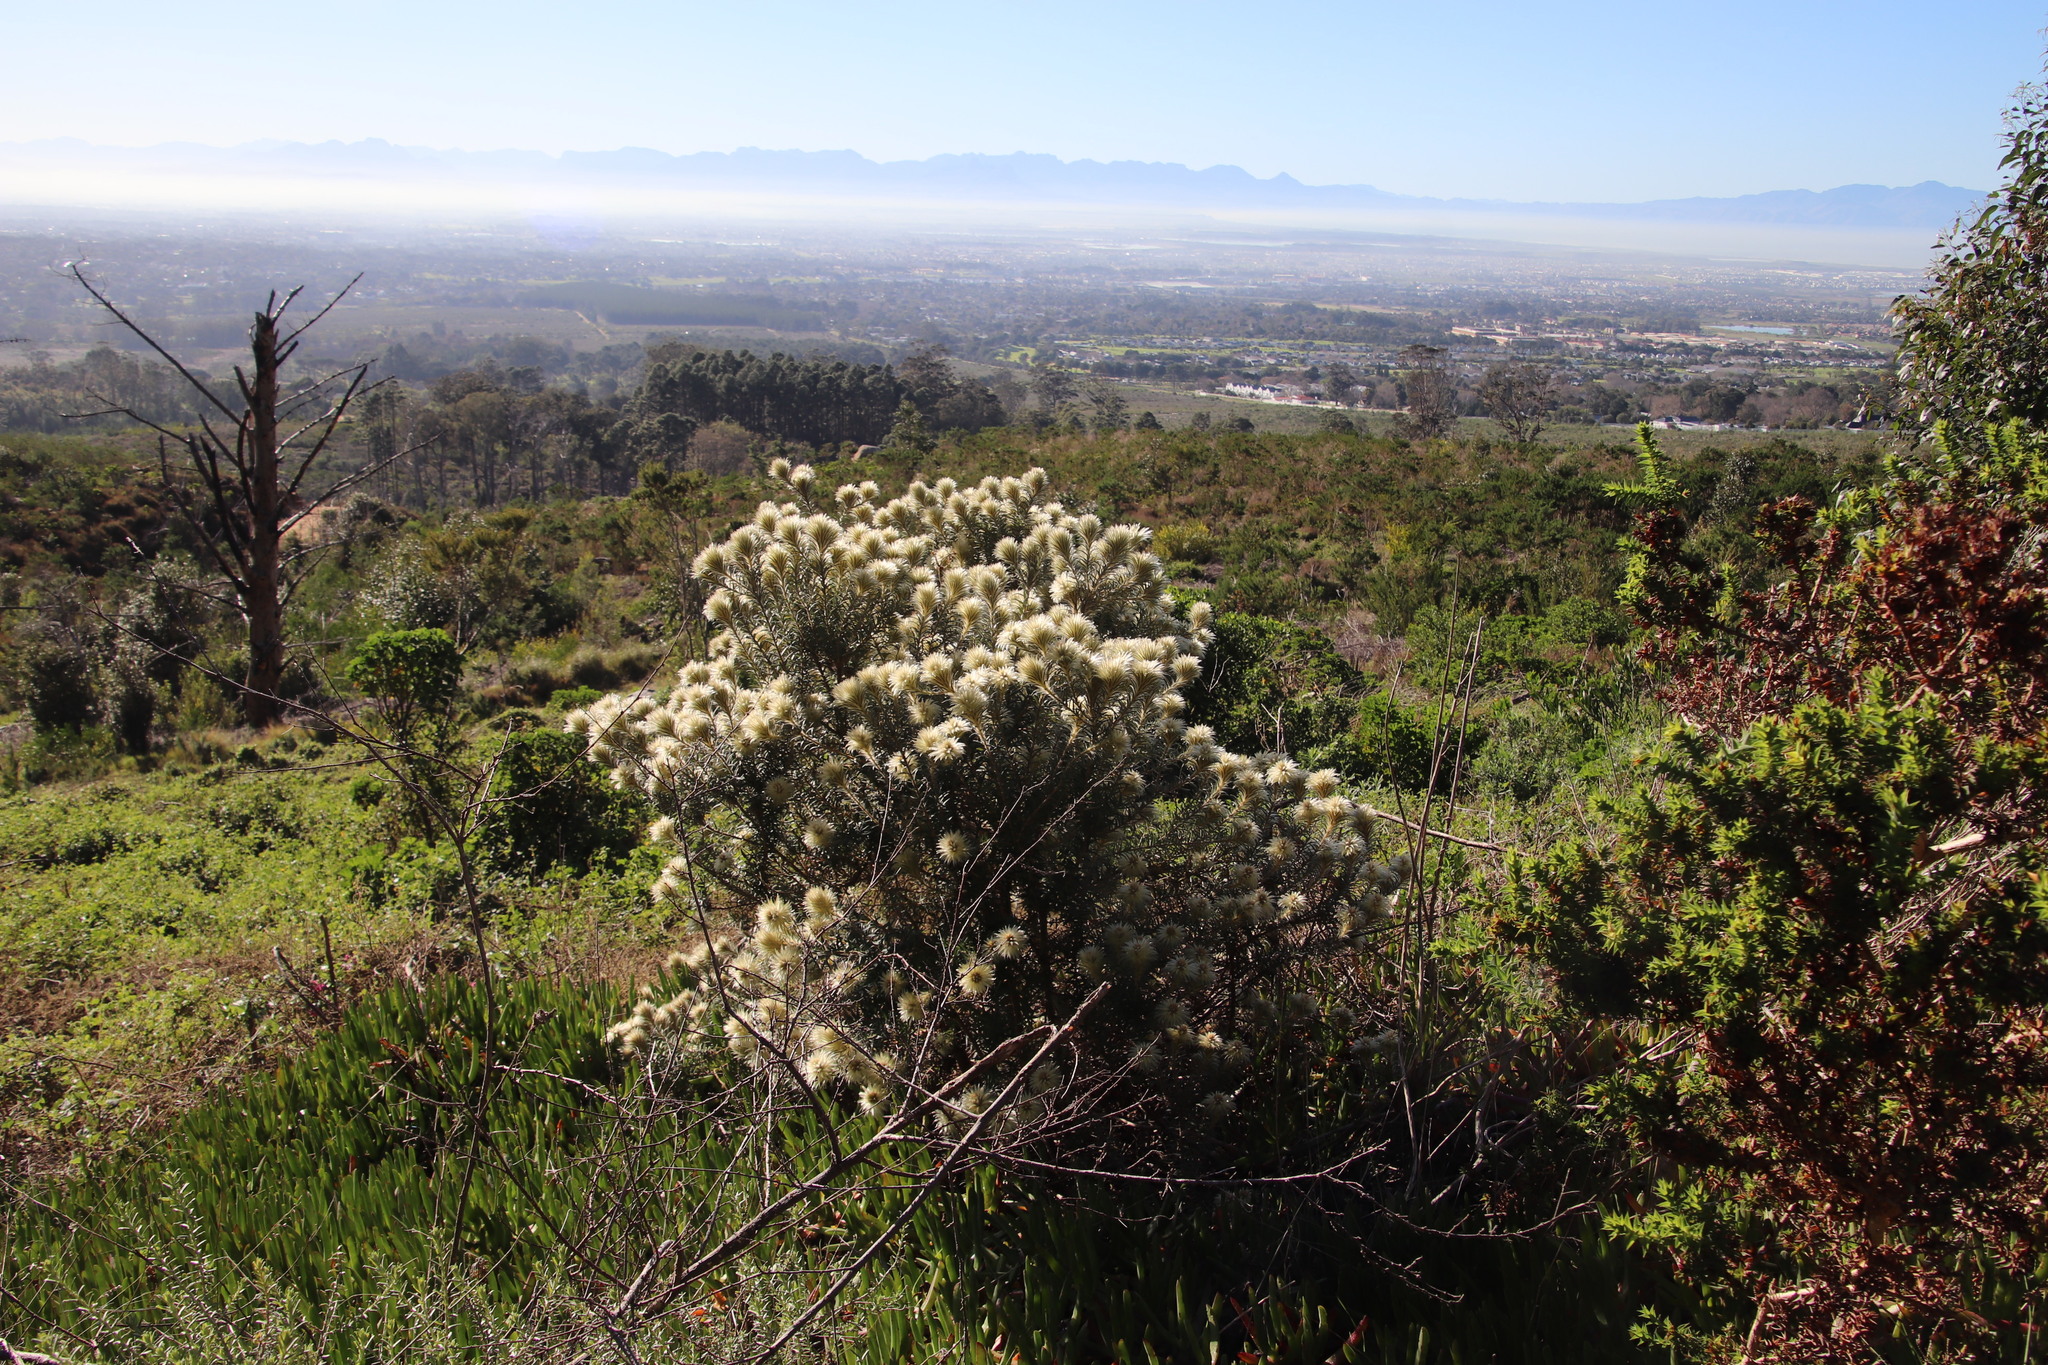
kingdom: Plantae
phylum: Tracheophyta
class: Magnoliopsida
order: Rosales
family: Rhamnaceae
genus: Phylica
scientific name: Phylica pubescens
